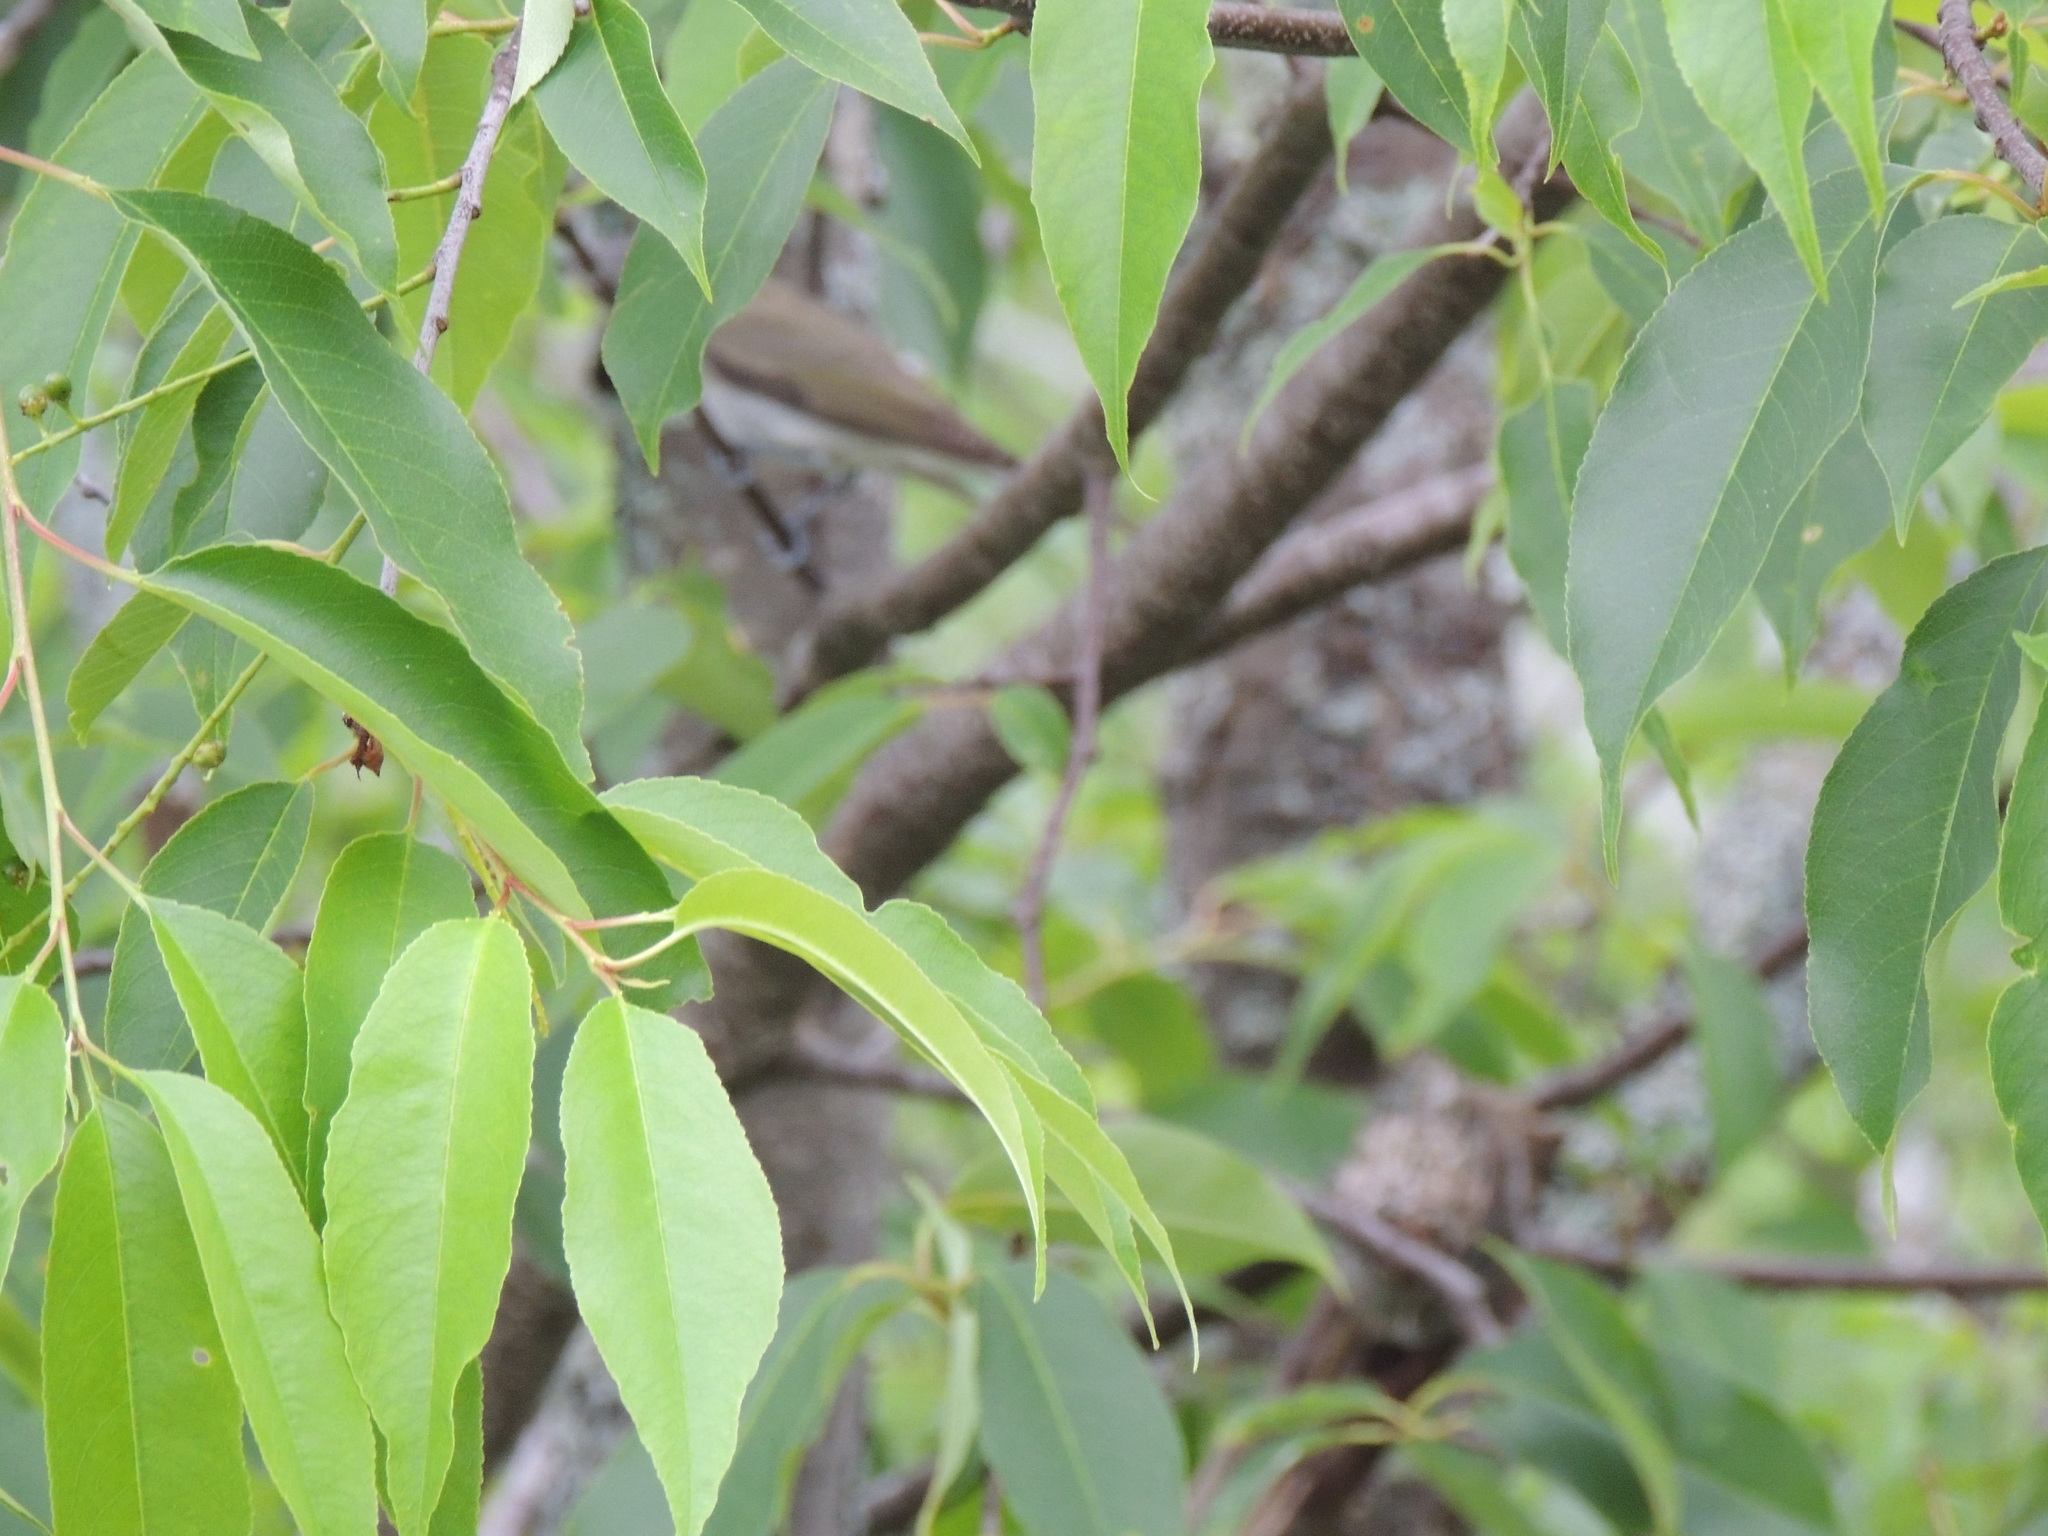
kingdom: Animalia
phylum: Chordata
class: Aves
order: Passeriformes
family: Vireonidae
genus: Vireo
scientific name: Vireo olivaceus
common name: Red-eyed vireo
